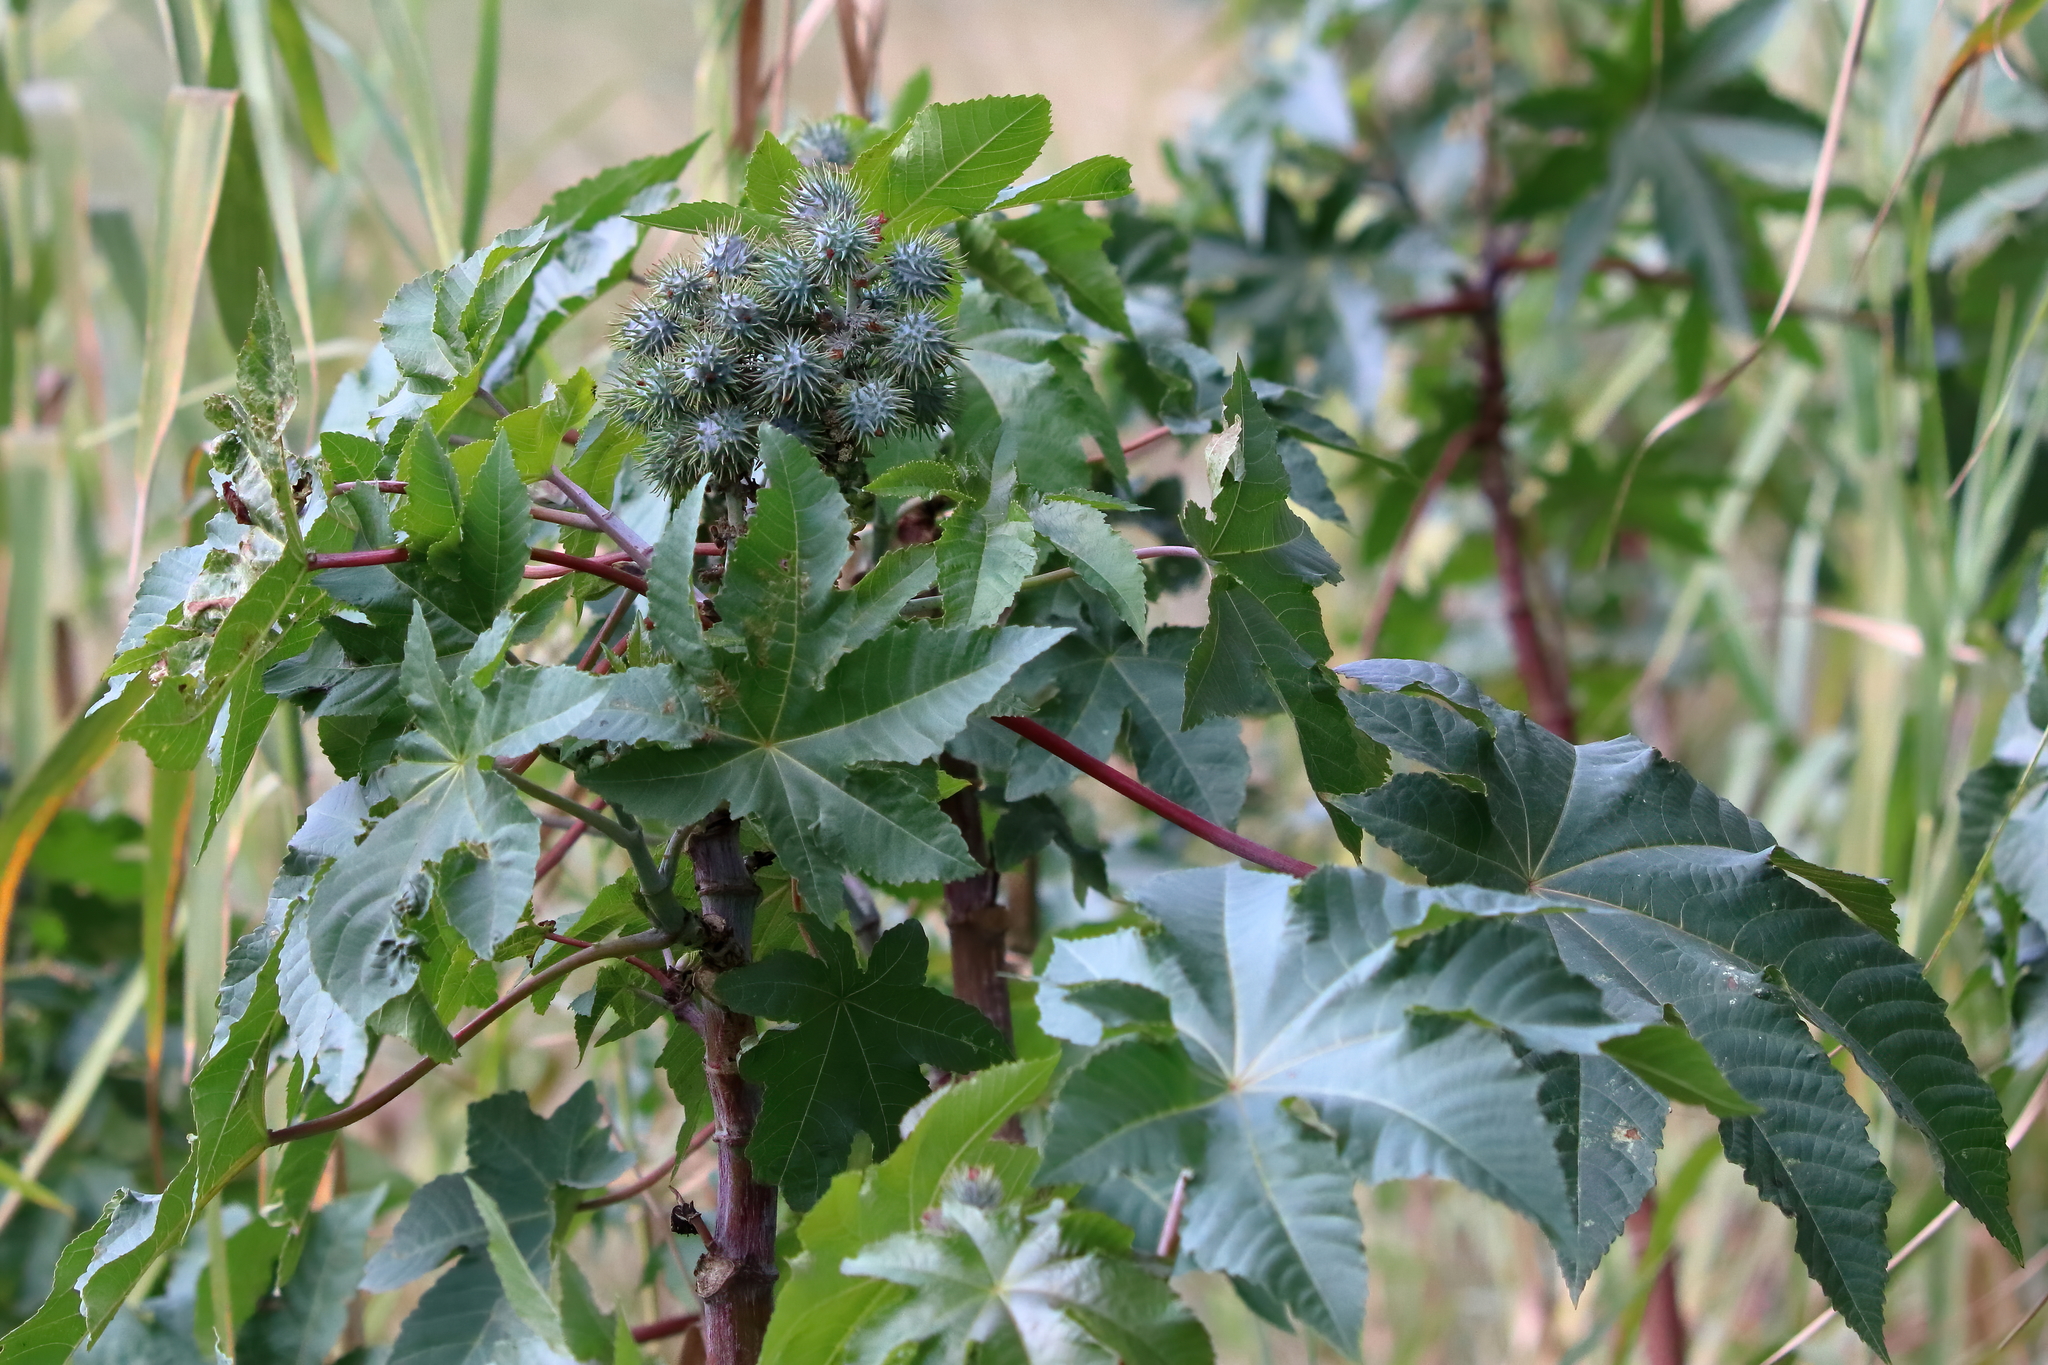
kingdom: Plantae
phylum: Tracheophyta
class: Magnoliopsida
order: Malpighiales
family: Euphorbiaceae
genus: Ricinus
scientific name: Ricinus communis
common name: Castor-oil-plant
